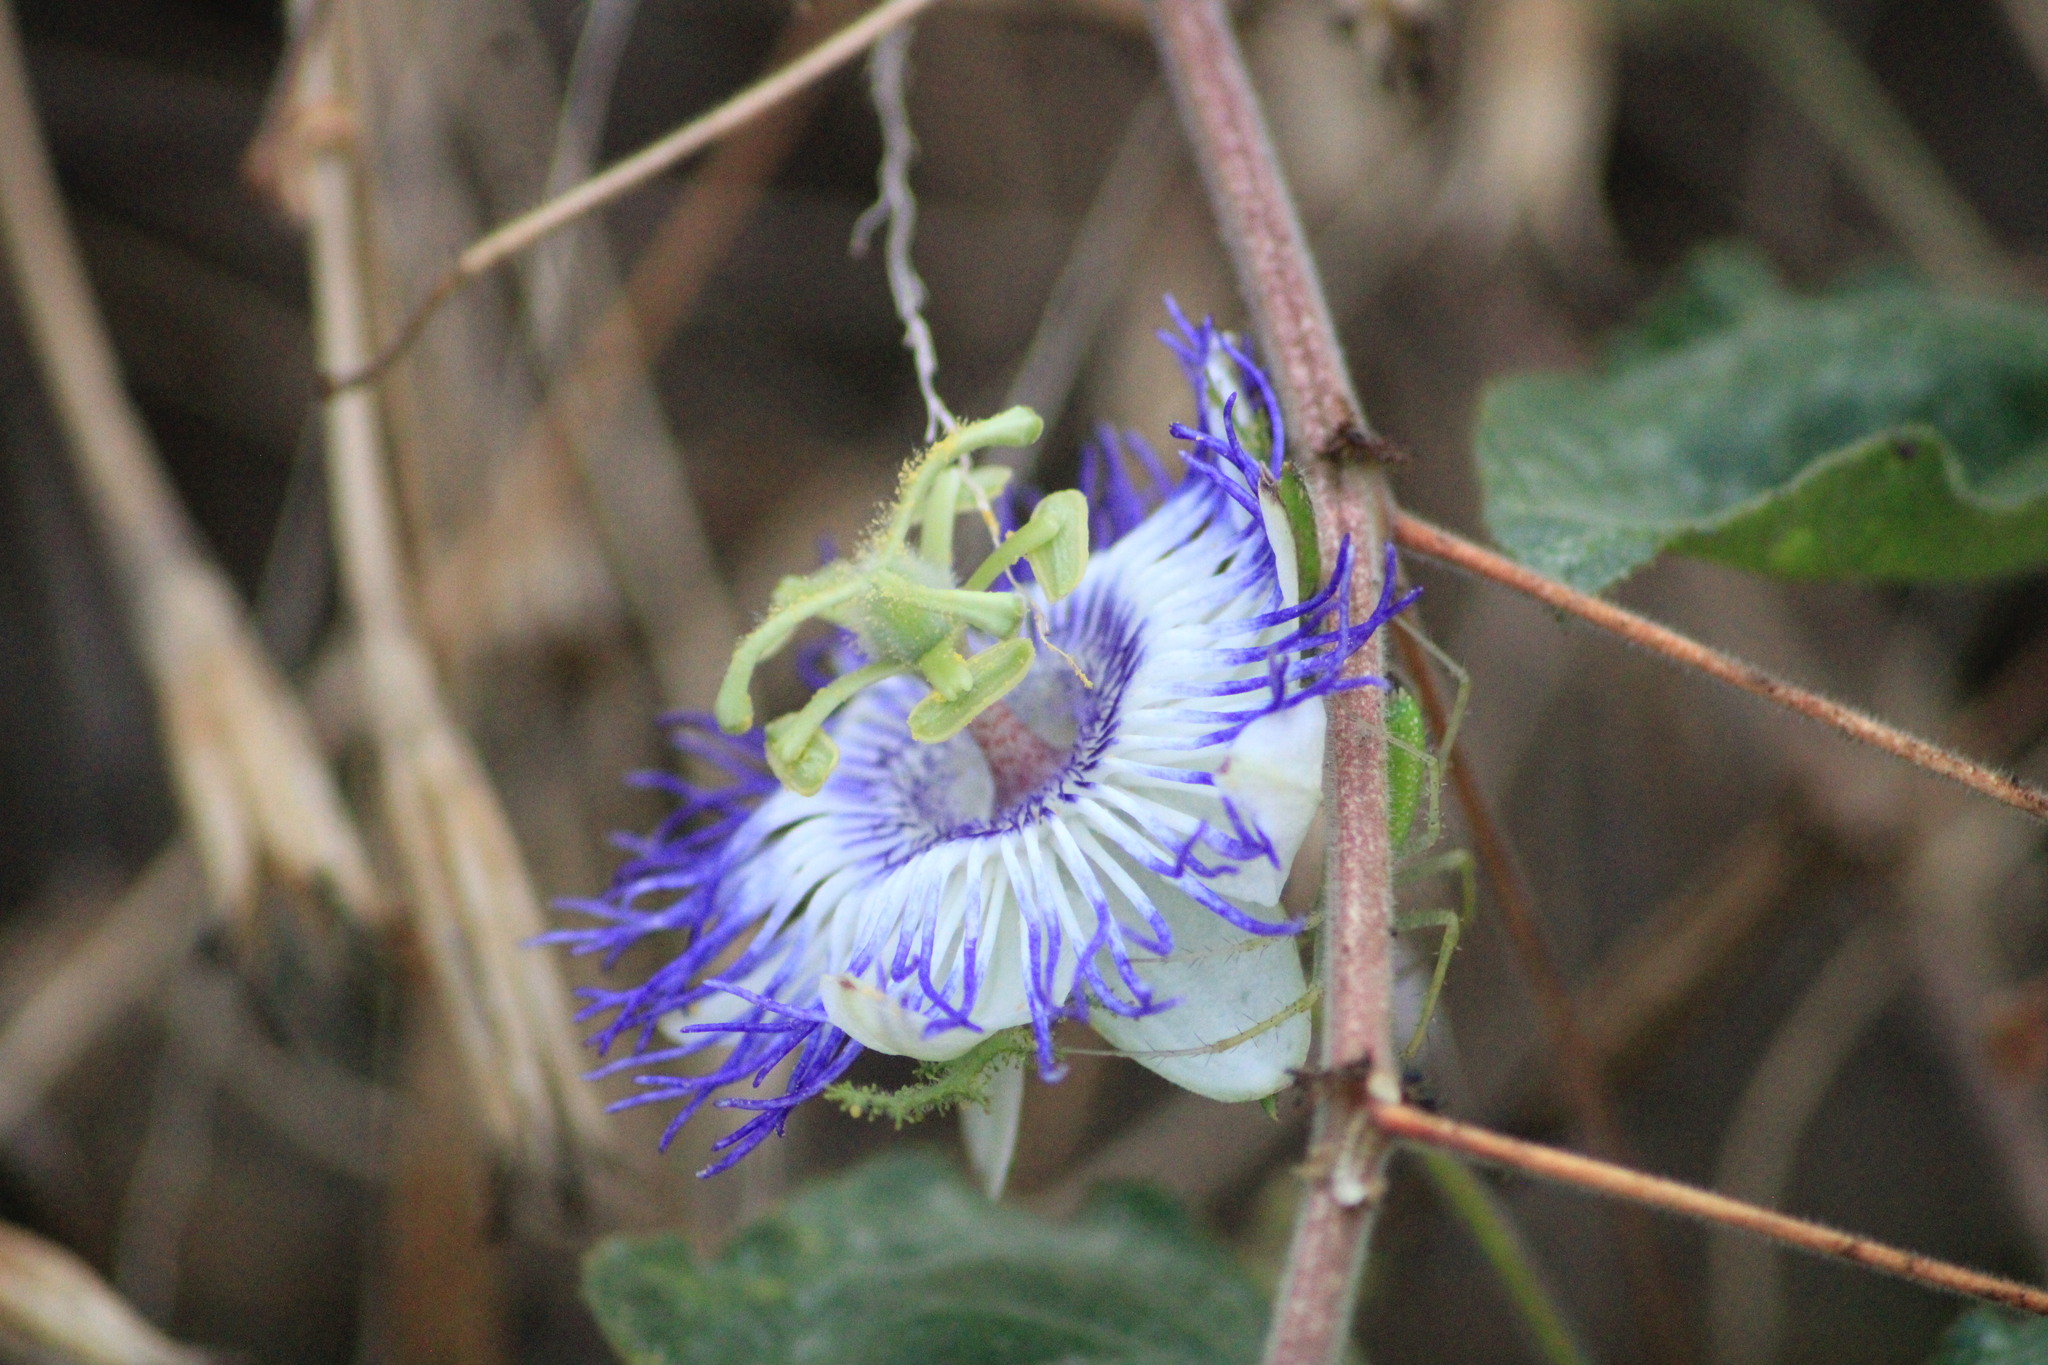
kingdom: Plantae
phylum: Tracheophyta
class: Magnoliopsida
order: Malpighiales
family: Passifloraceae
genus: Passiflora
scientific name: Passiflora foetida
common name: Fetid passionflower
